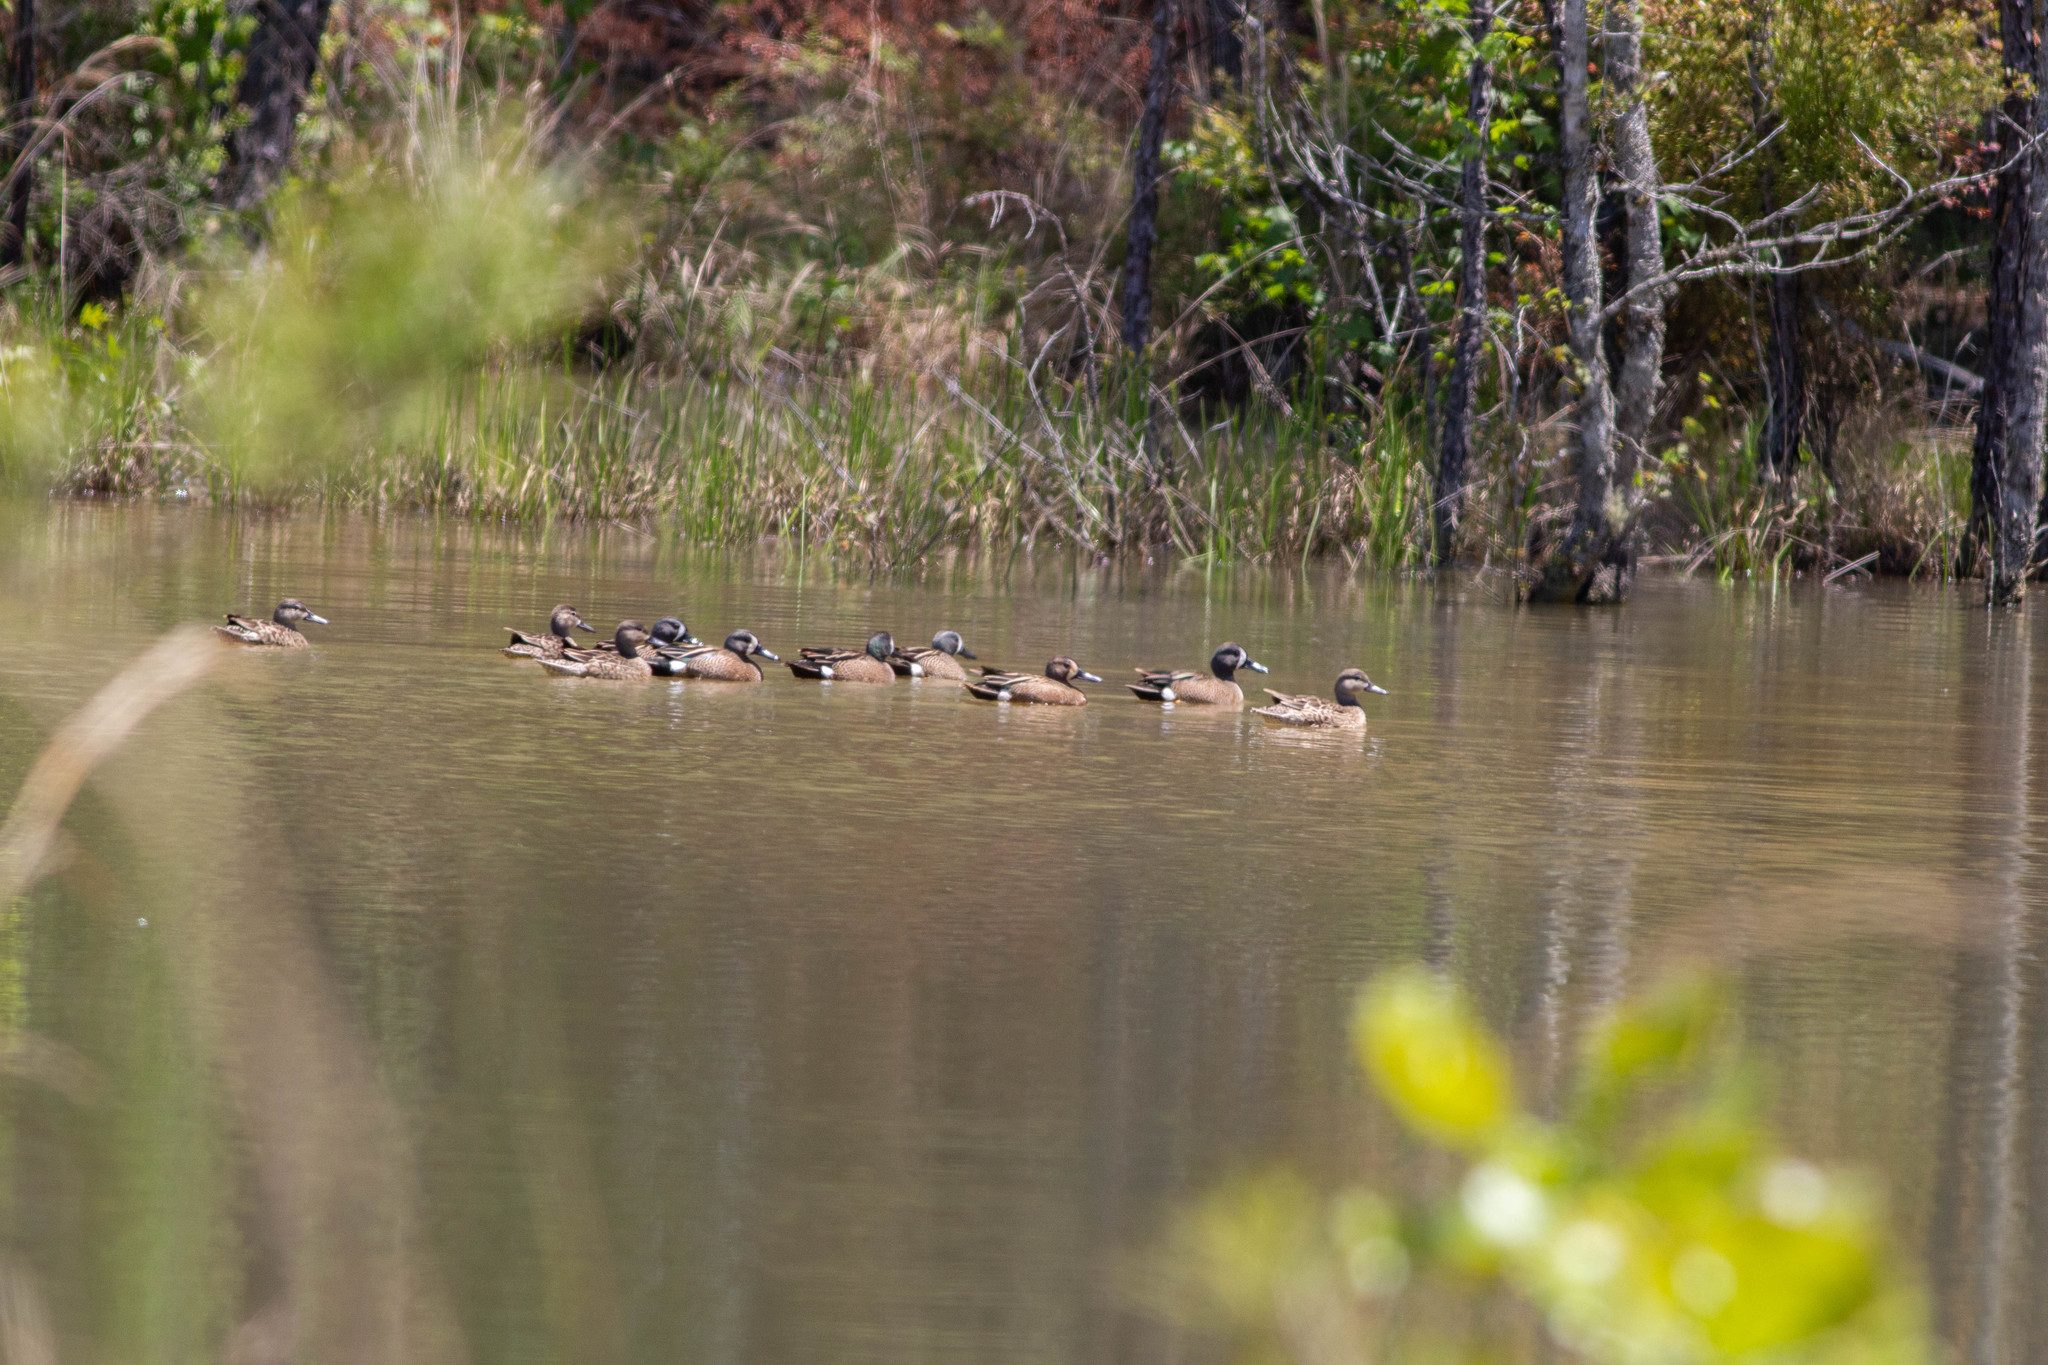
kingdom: Animalia
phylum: Chordata
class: Aves
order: Anseriformes
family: Anatidae
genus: Spatula
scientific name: Spatula discors
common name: Blue-winged teal
